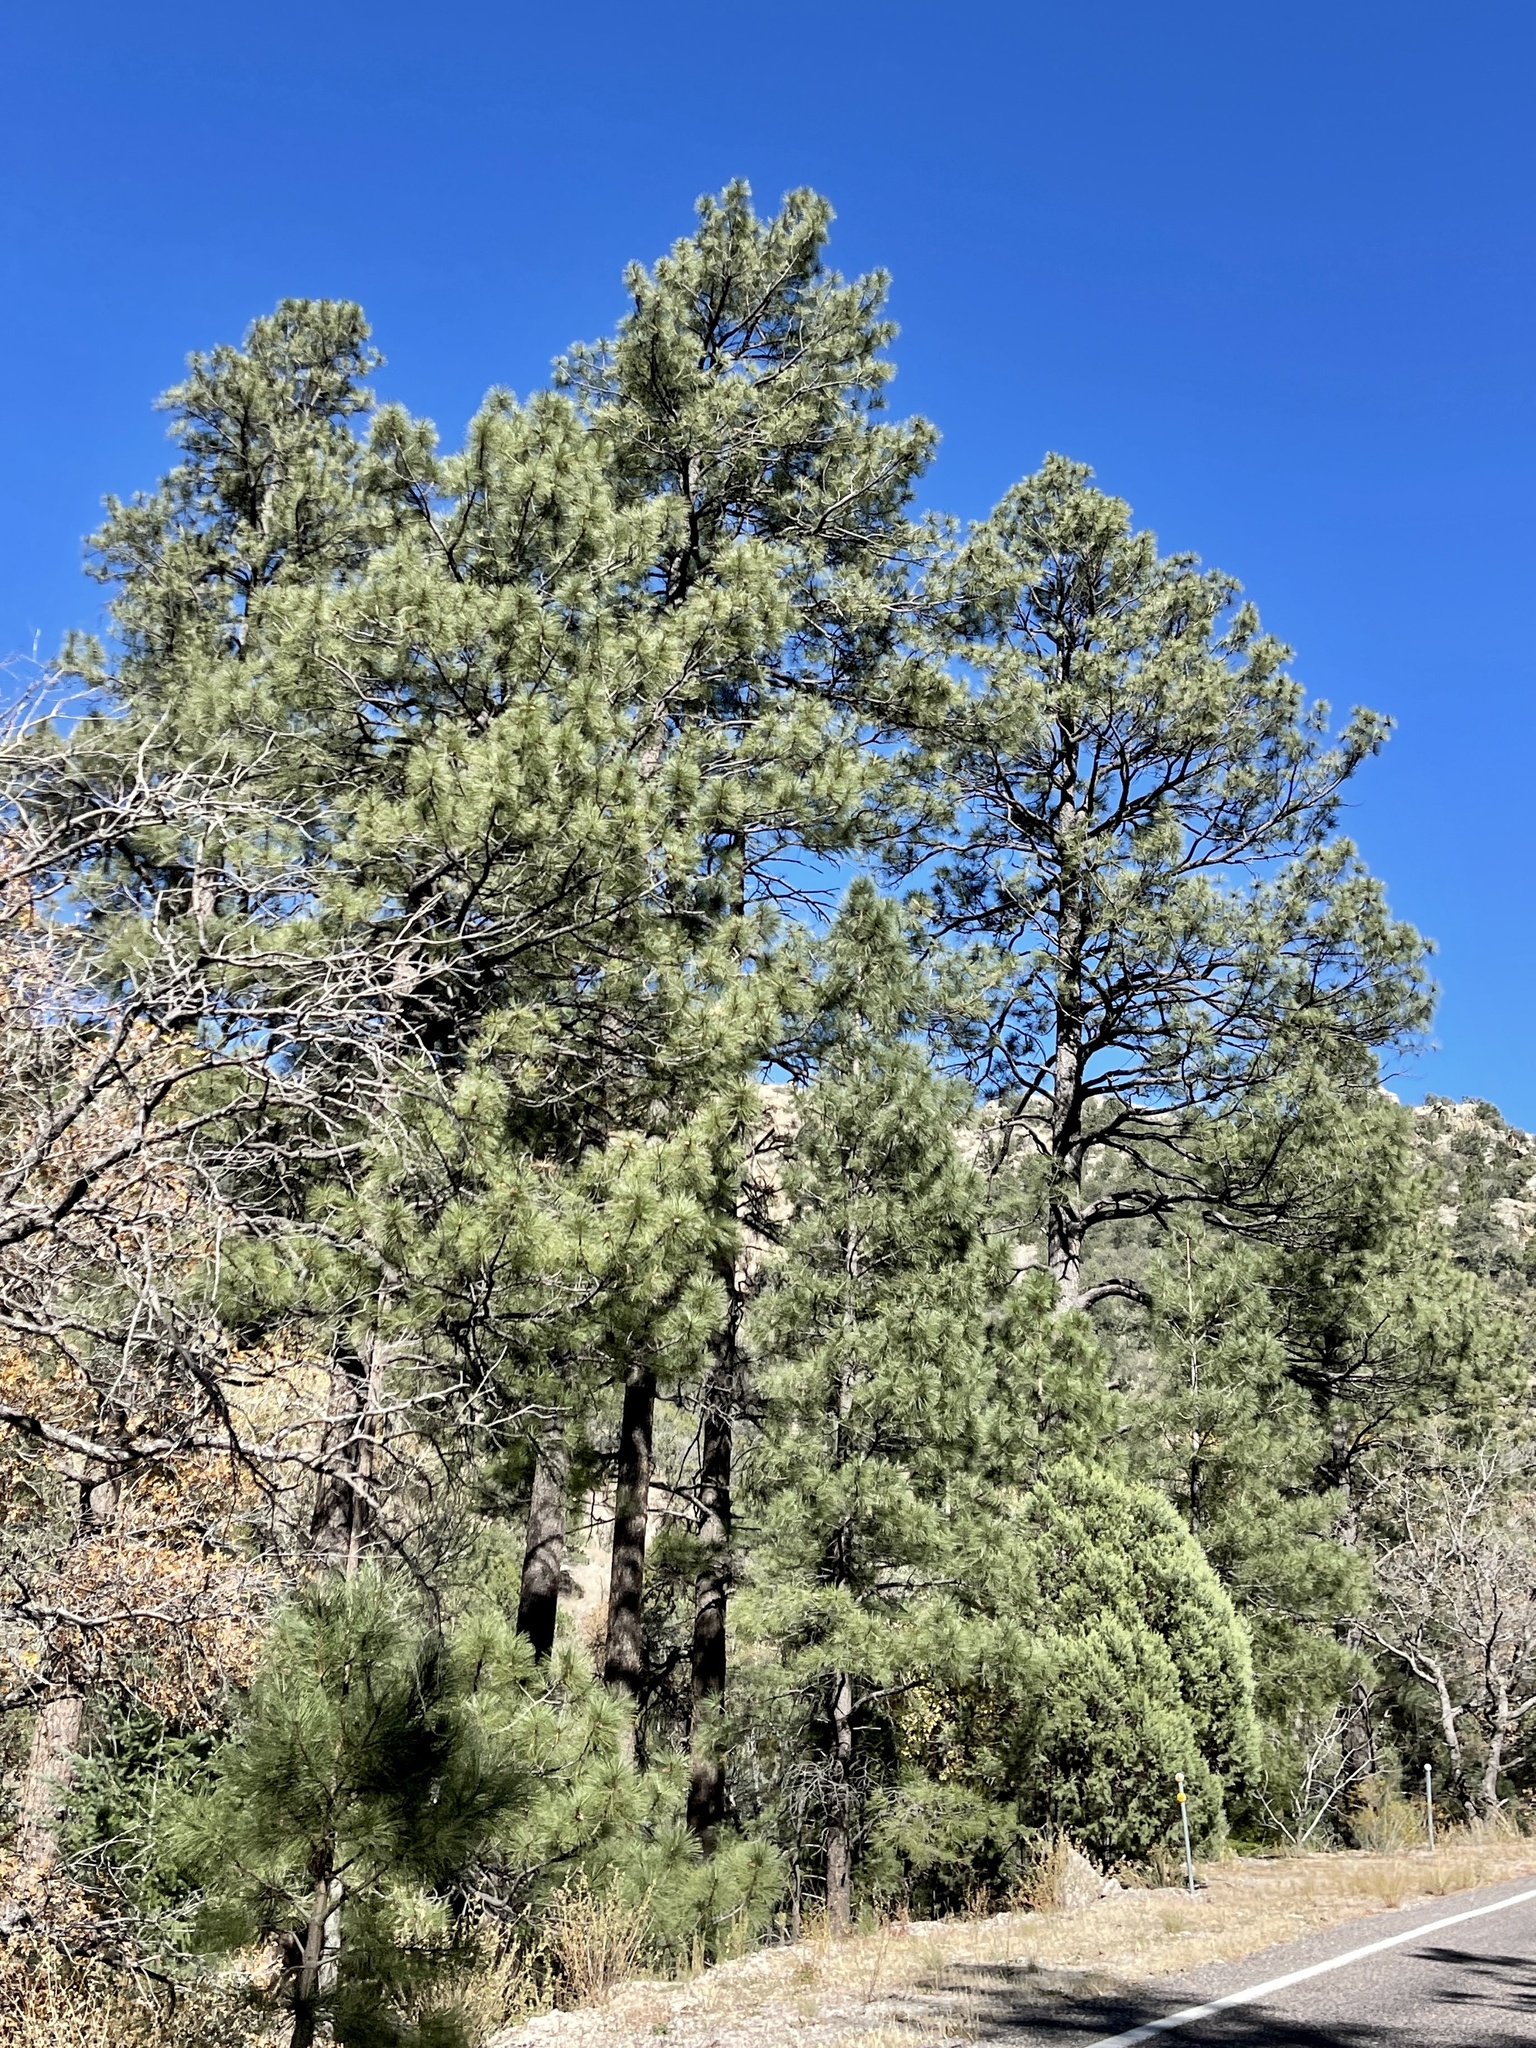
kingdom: Plantae
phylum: Tracheophyta
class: Pinopsida
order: Pinales
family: Pinaceae
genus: Pinus
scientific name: Pinus ponderosa
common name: Western yellow-pine
